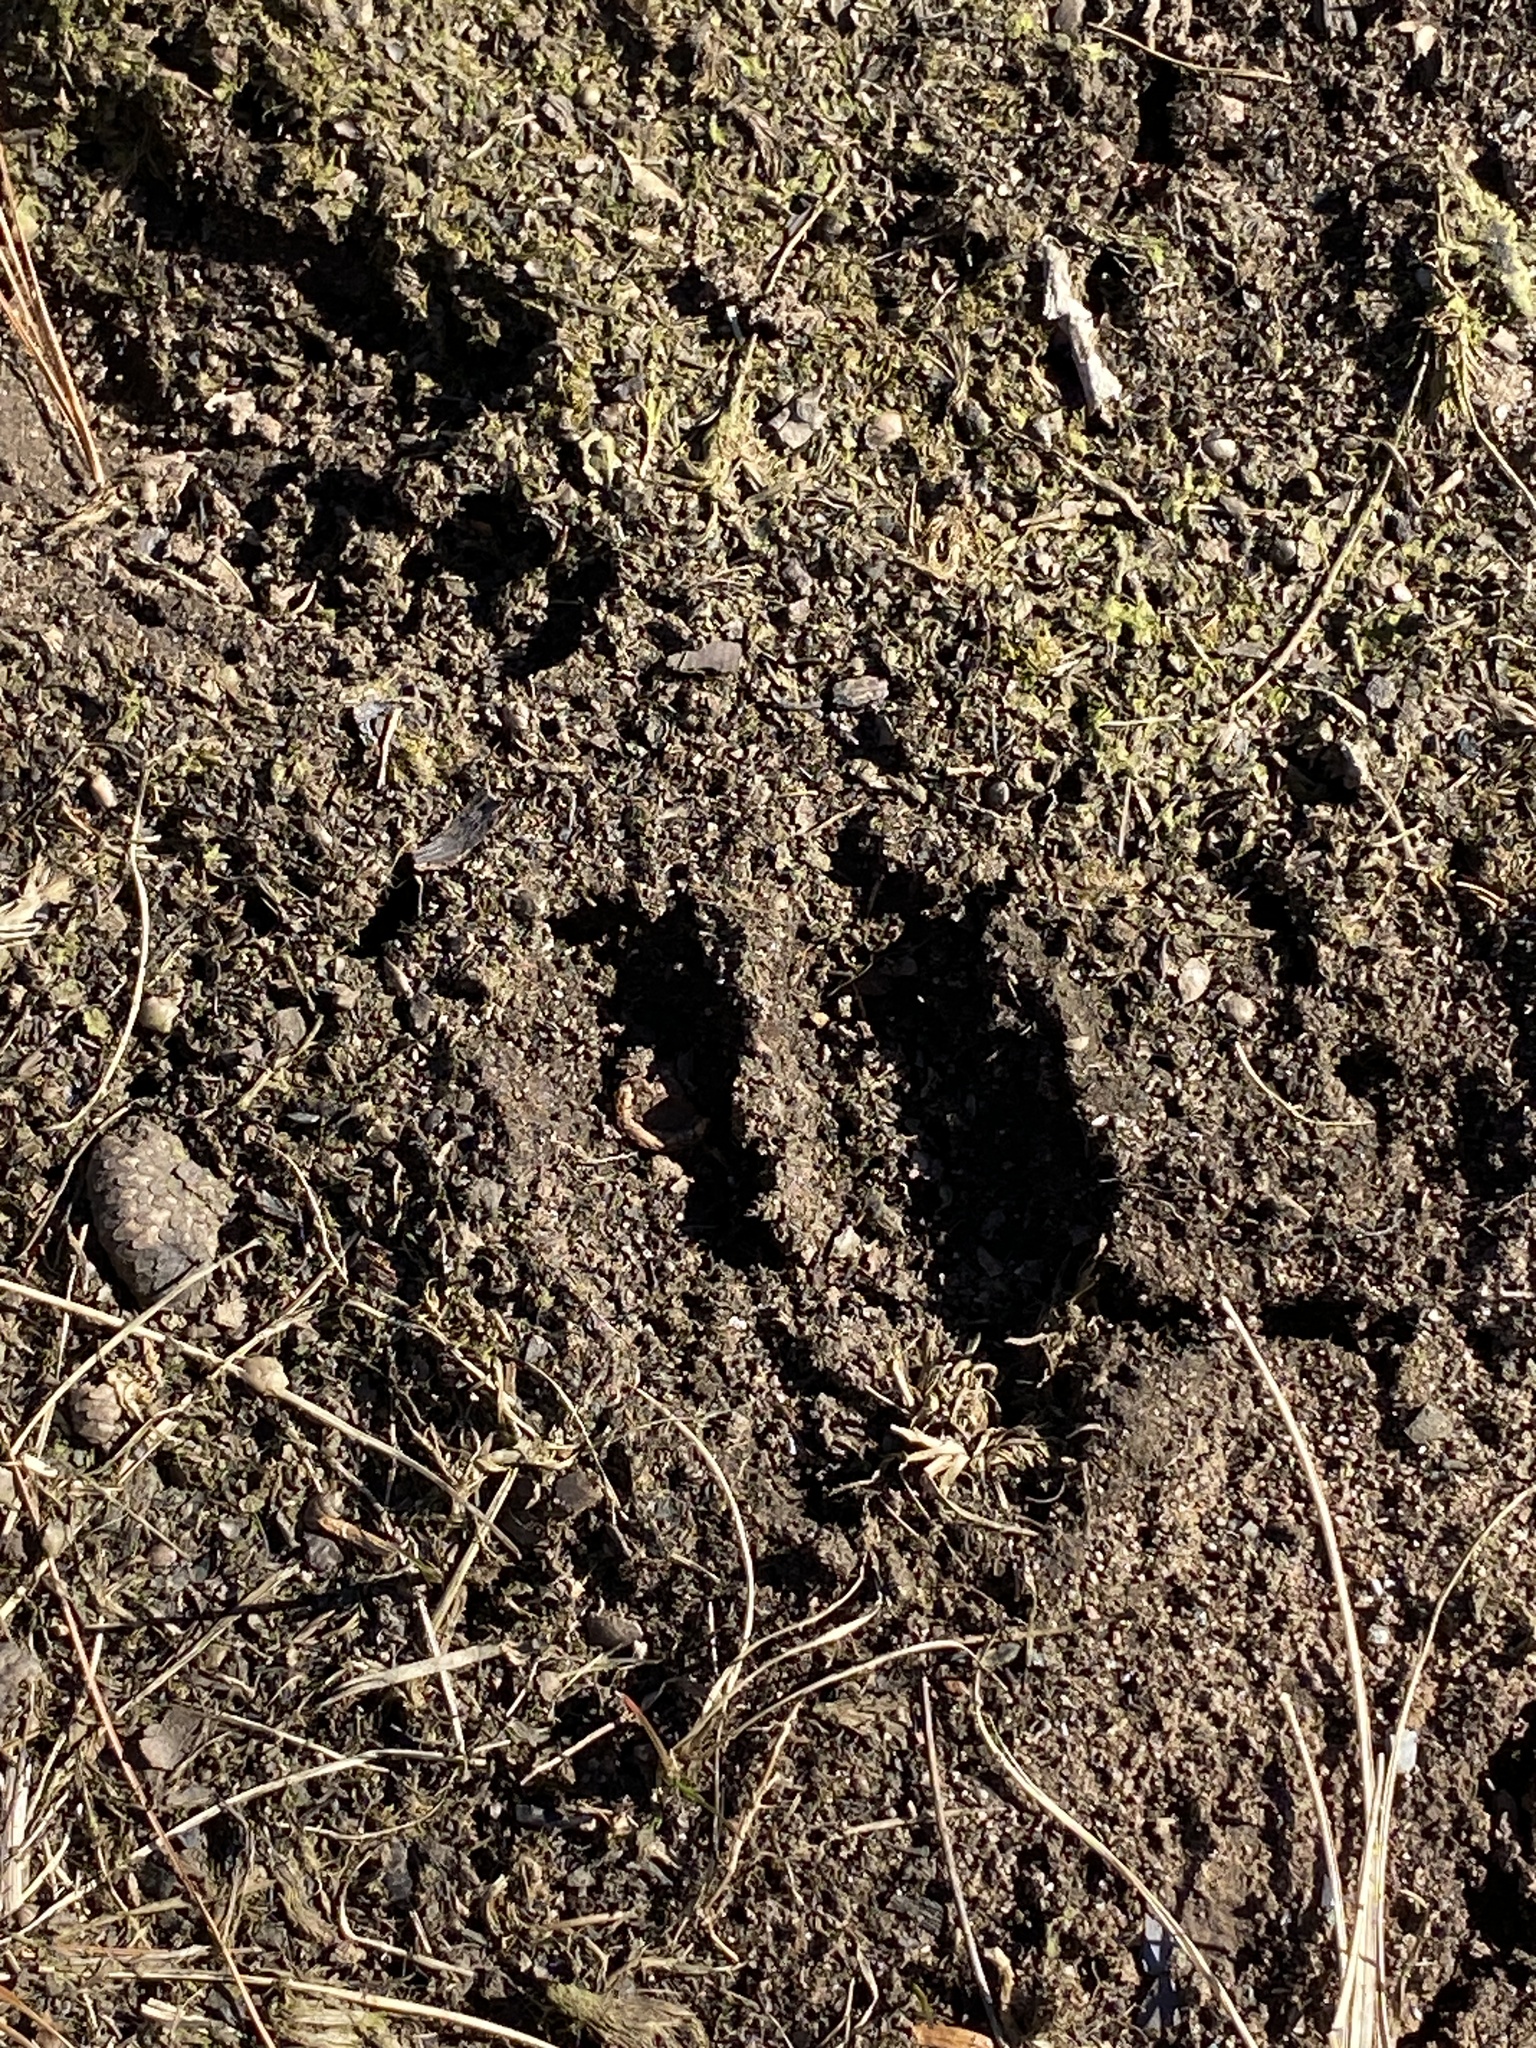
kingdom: Animalia
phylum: Chordata
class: Mammalia
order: Artiodactyla
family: Cervidae
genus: Odocoileus
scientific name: Odocoileus virginianus
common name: White-tailed deer
